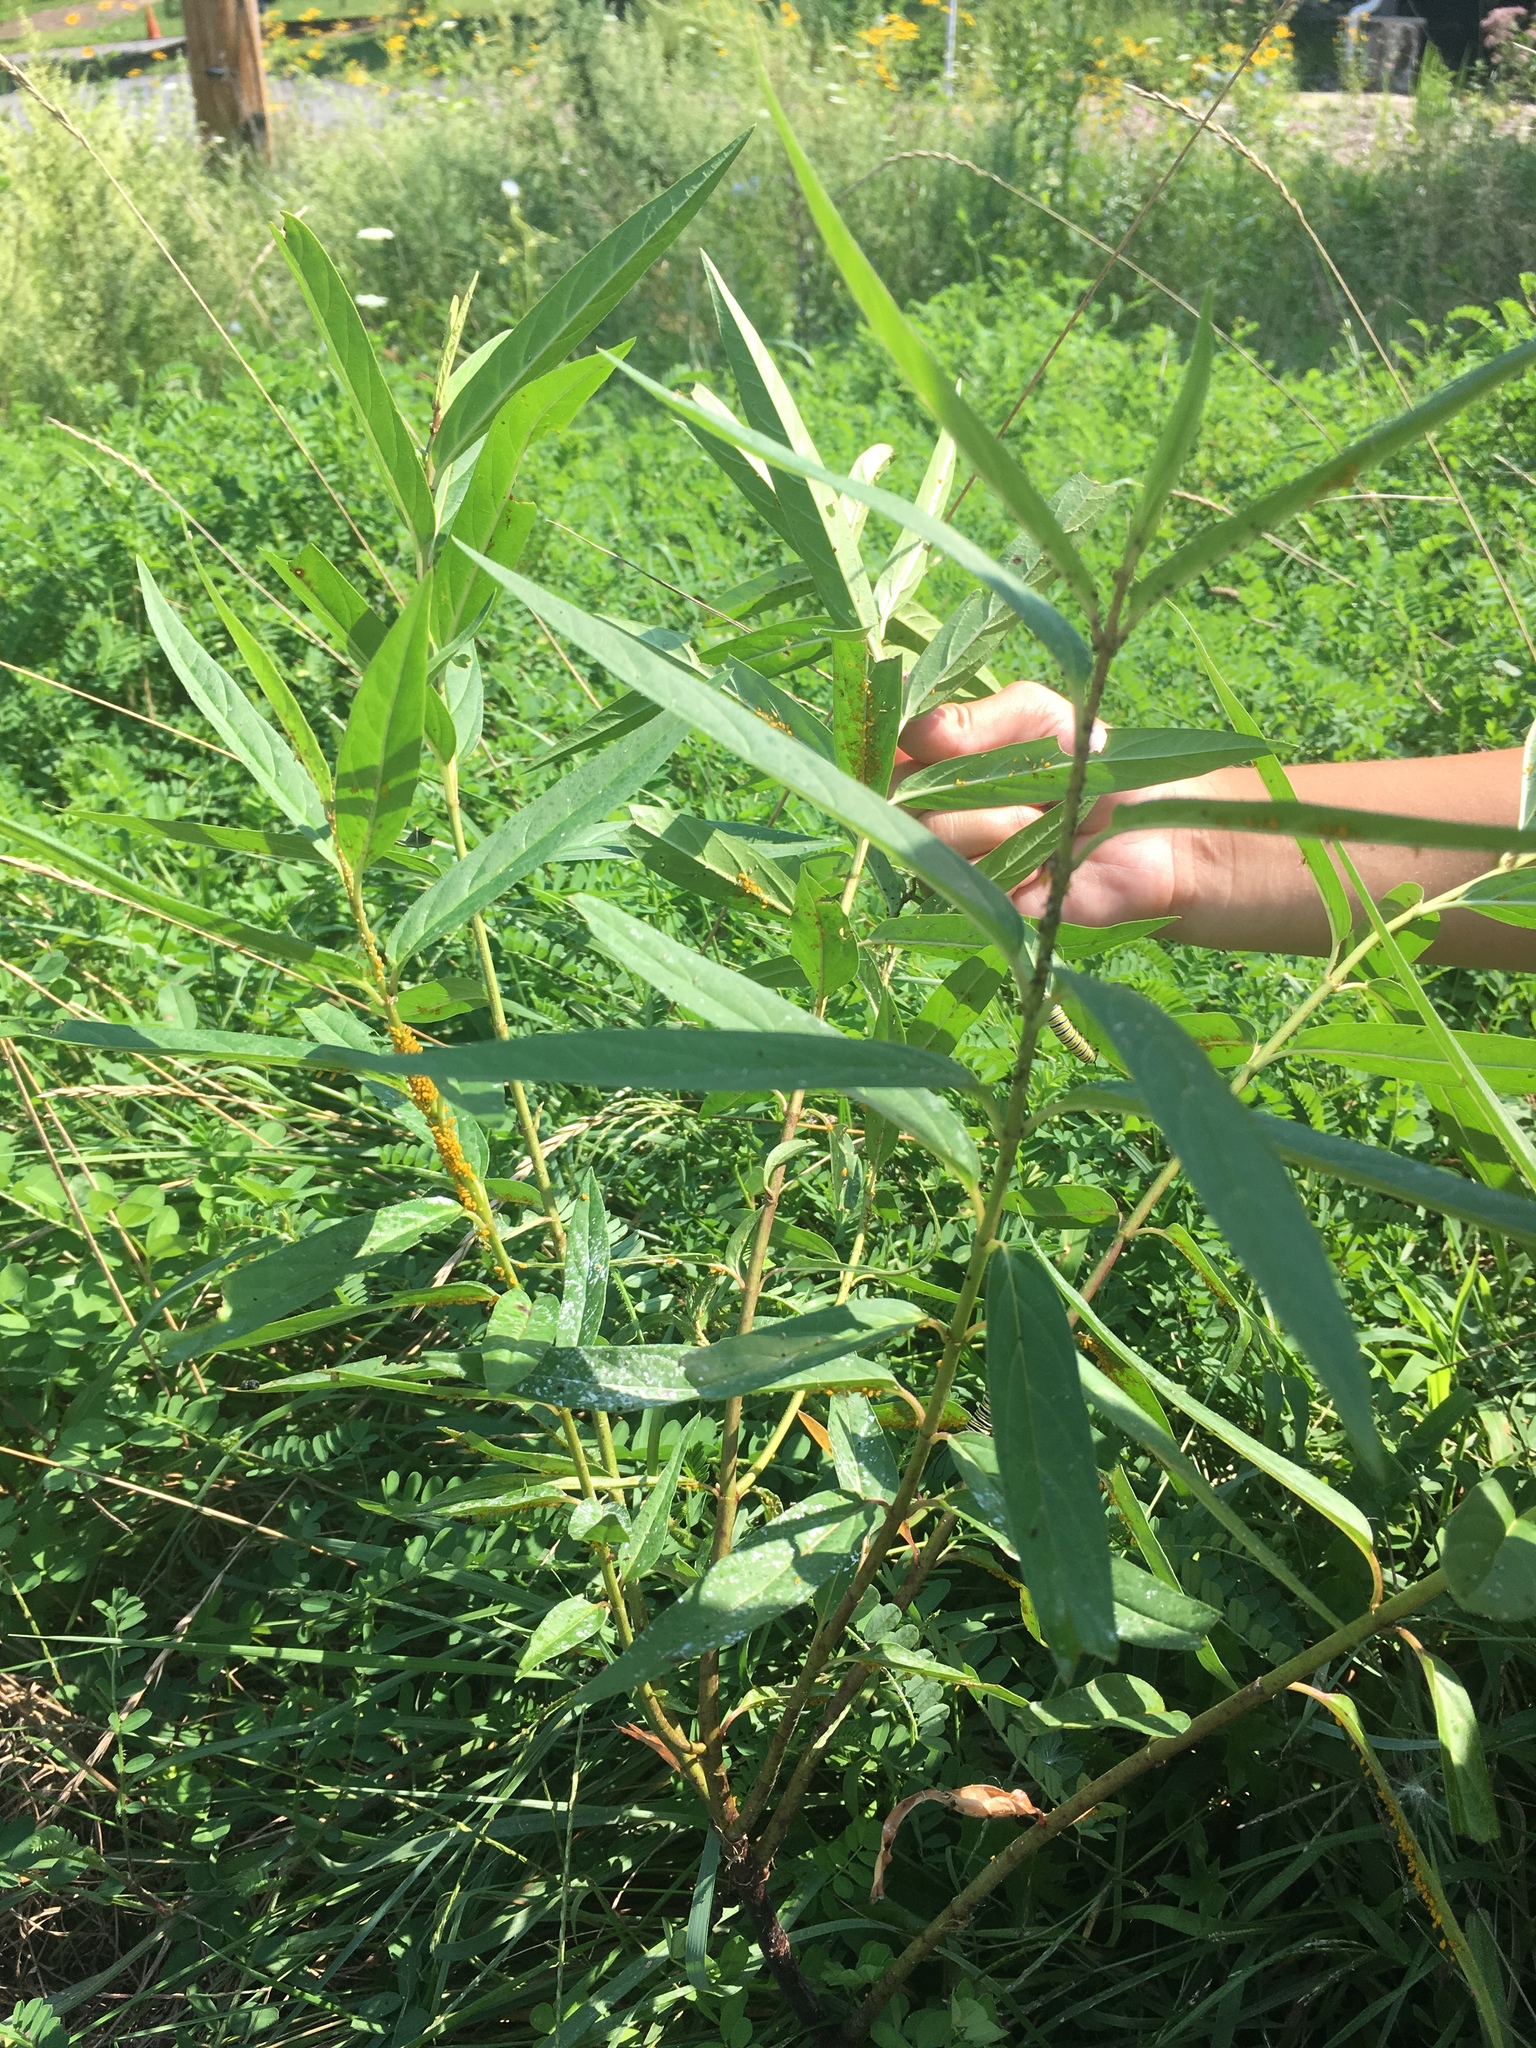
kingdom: Plantae
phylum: Tracheophyta
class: Magnoliopsida
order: Gentianales
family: Apocynaceae
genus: Asclepias
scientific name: Asclepias incarnata
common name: Swamp milkweed
